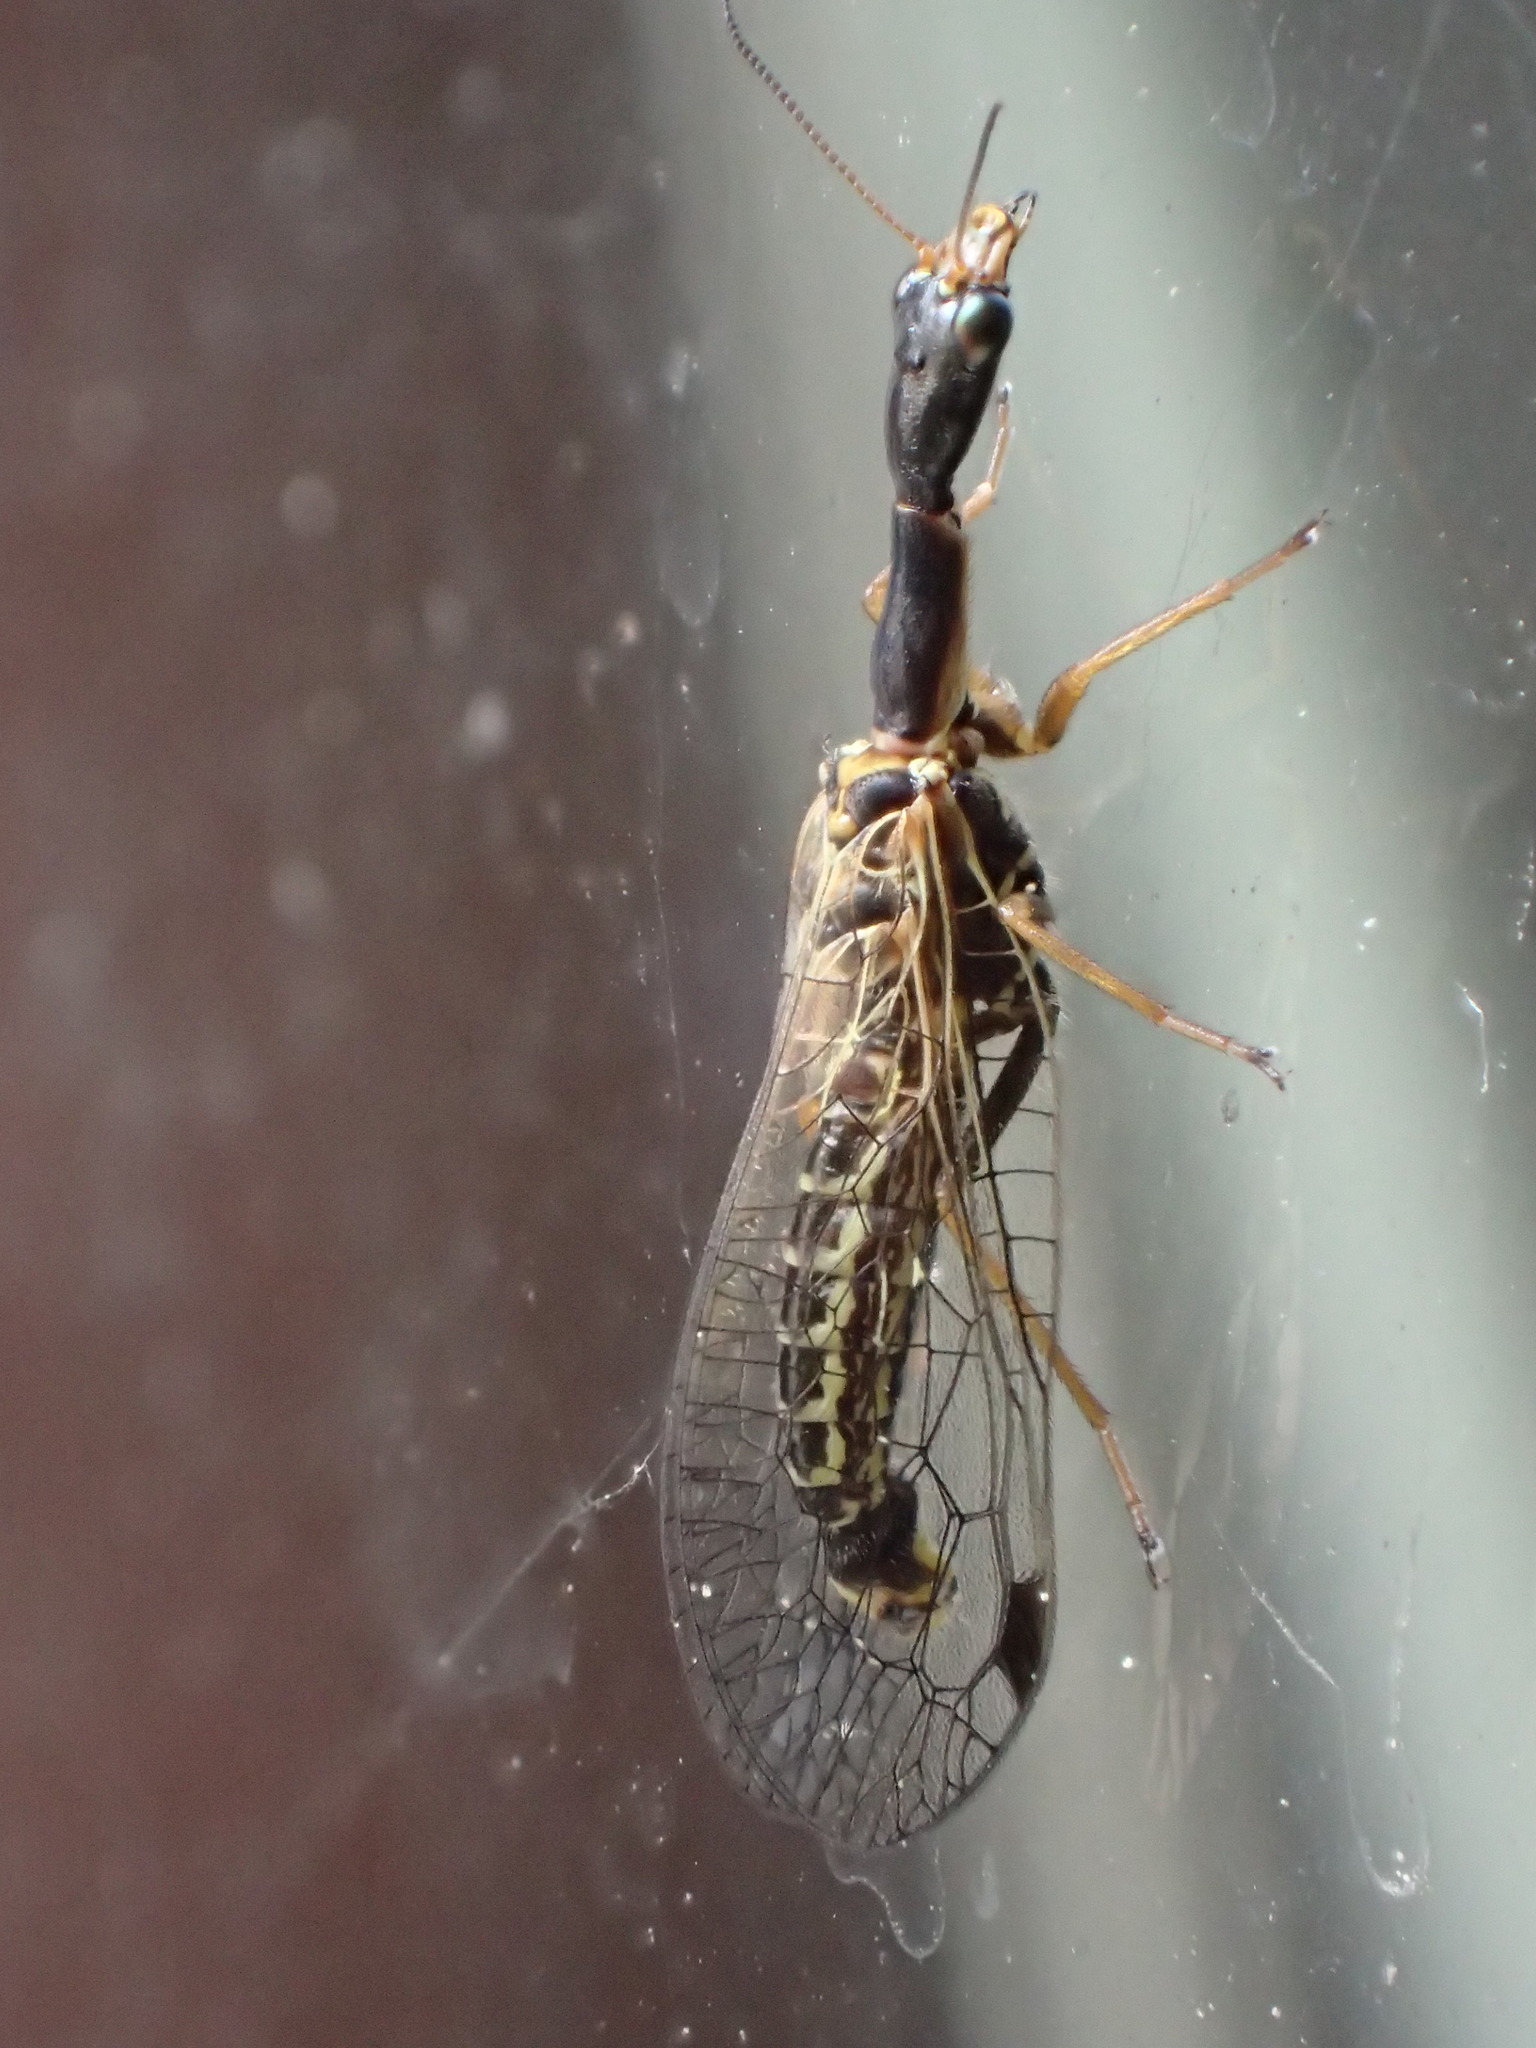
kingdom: Animalia
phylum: Arthropoda
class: Insecta
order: Raphidioptera
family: Raphidiidae
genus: Raphidia
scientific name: Raphidia ophiopsis
